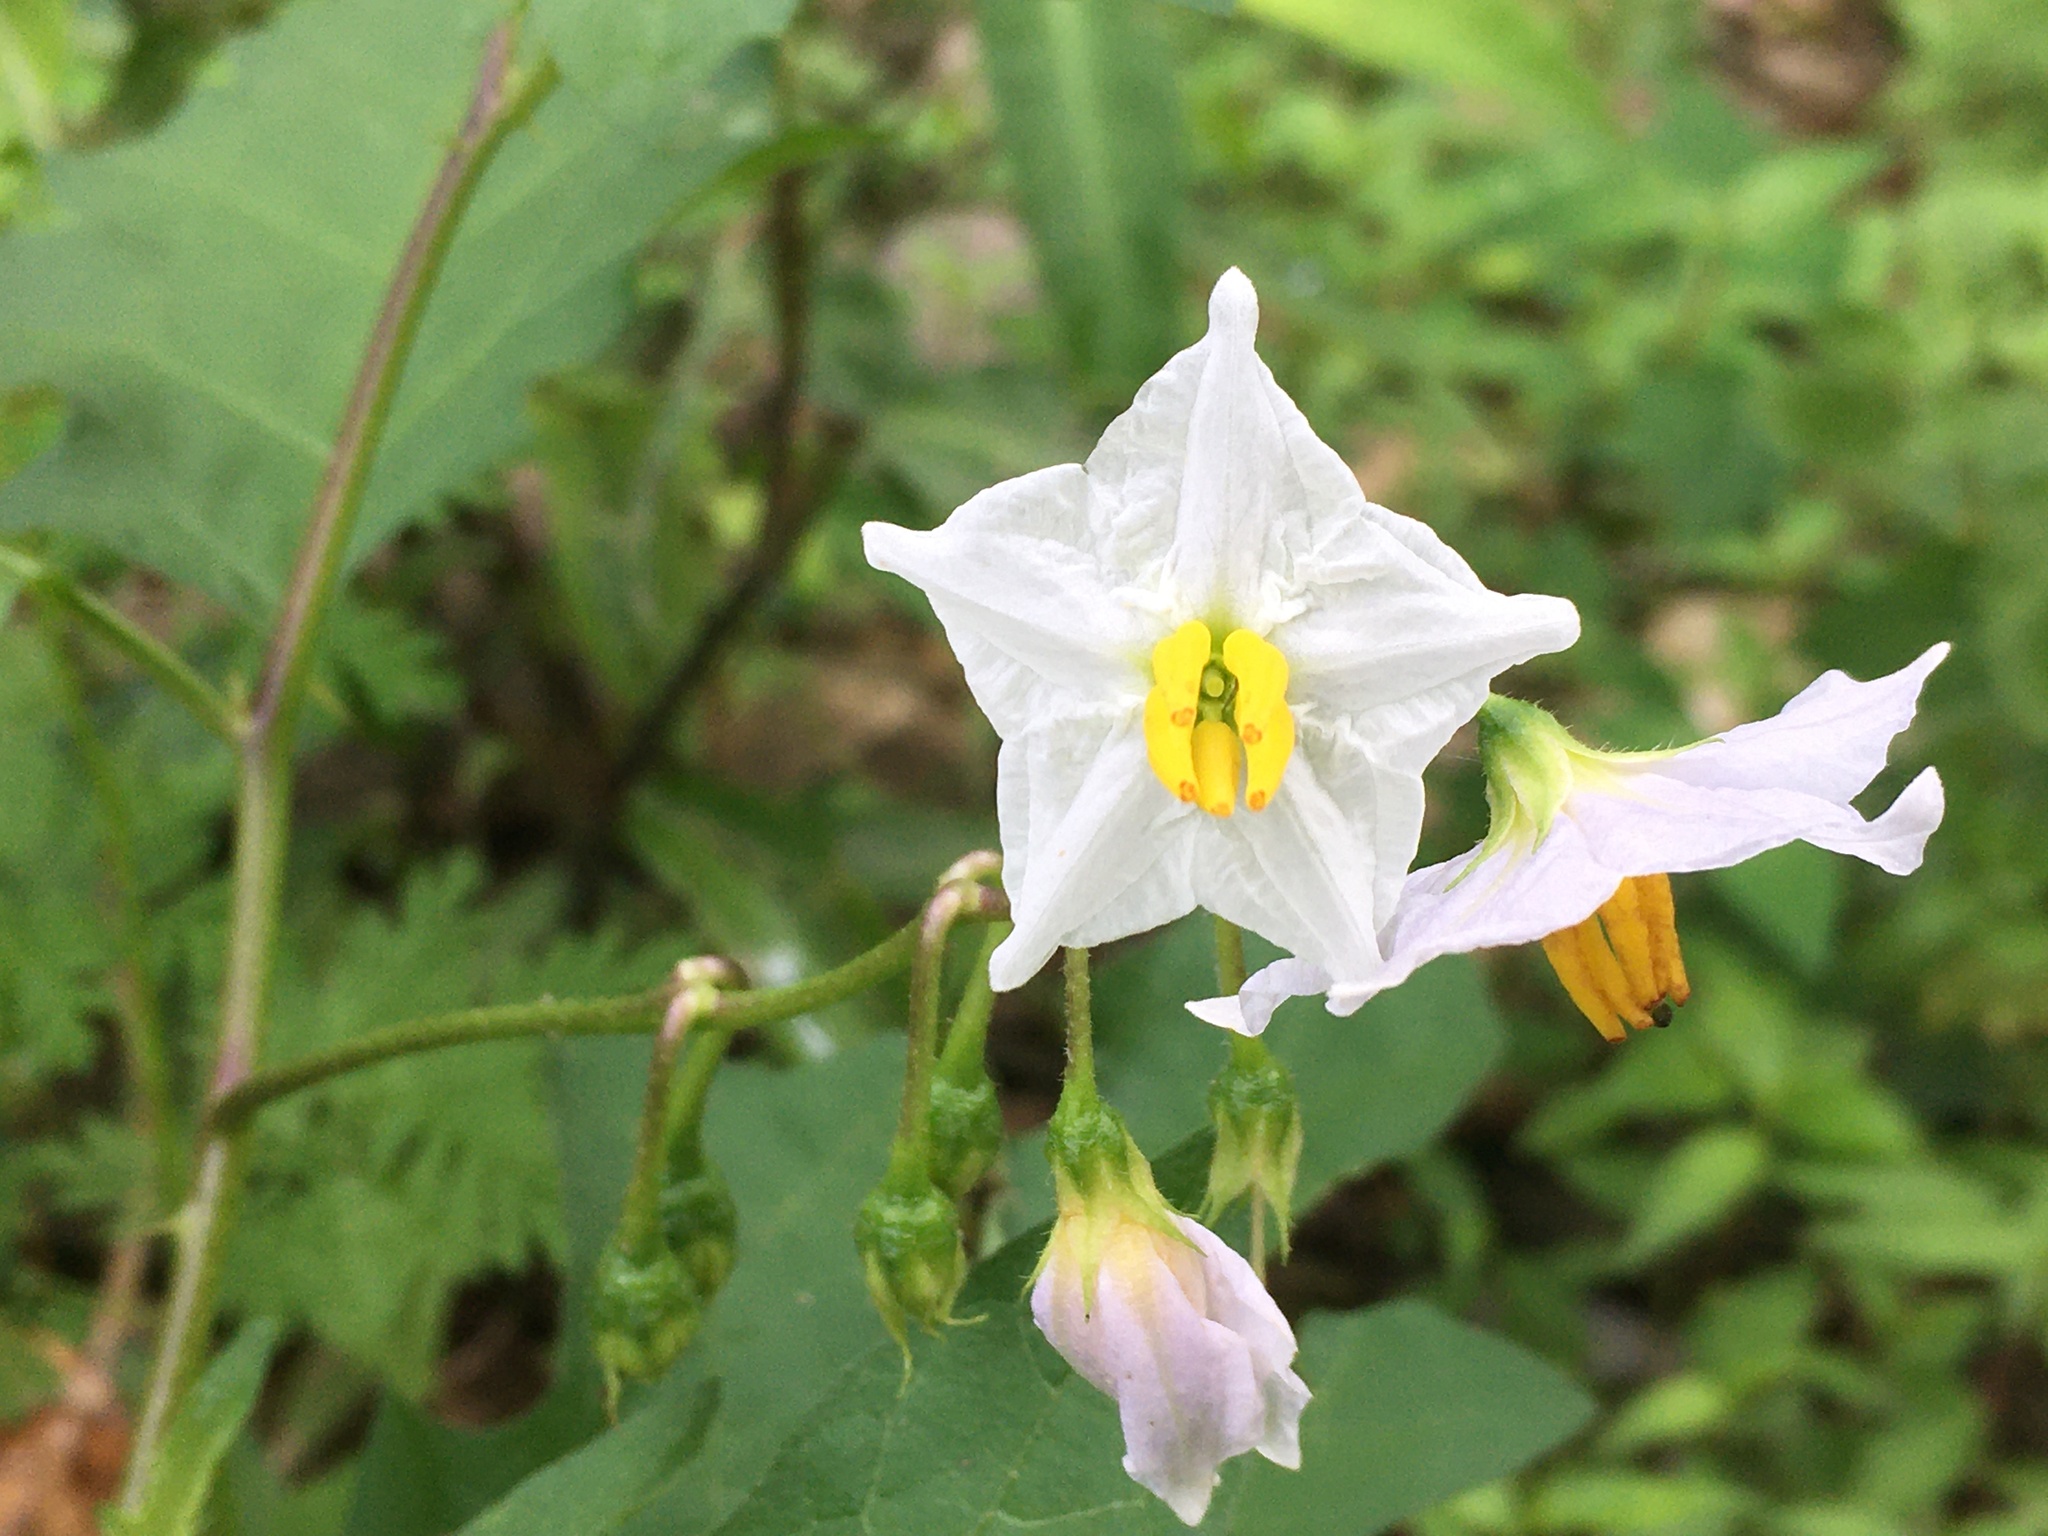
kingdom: Plantae
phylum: Tracheophyta
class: Magnoliopsida
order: Solanales
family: Solanaceae
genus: Solanum
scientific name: Solanum carolinense
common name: Horse-nettle
